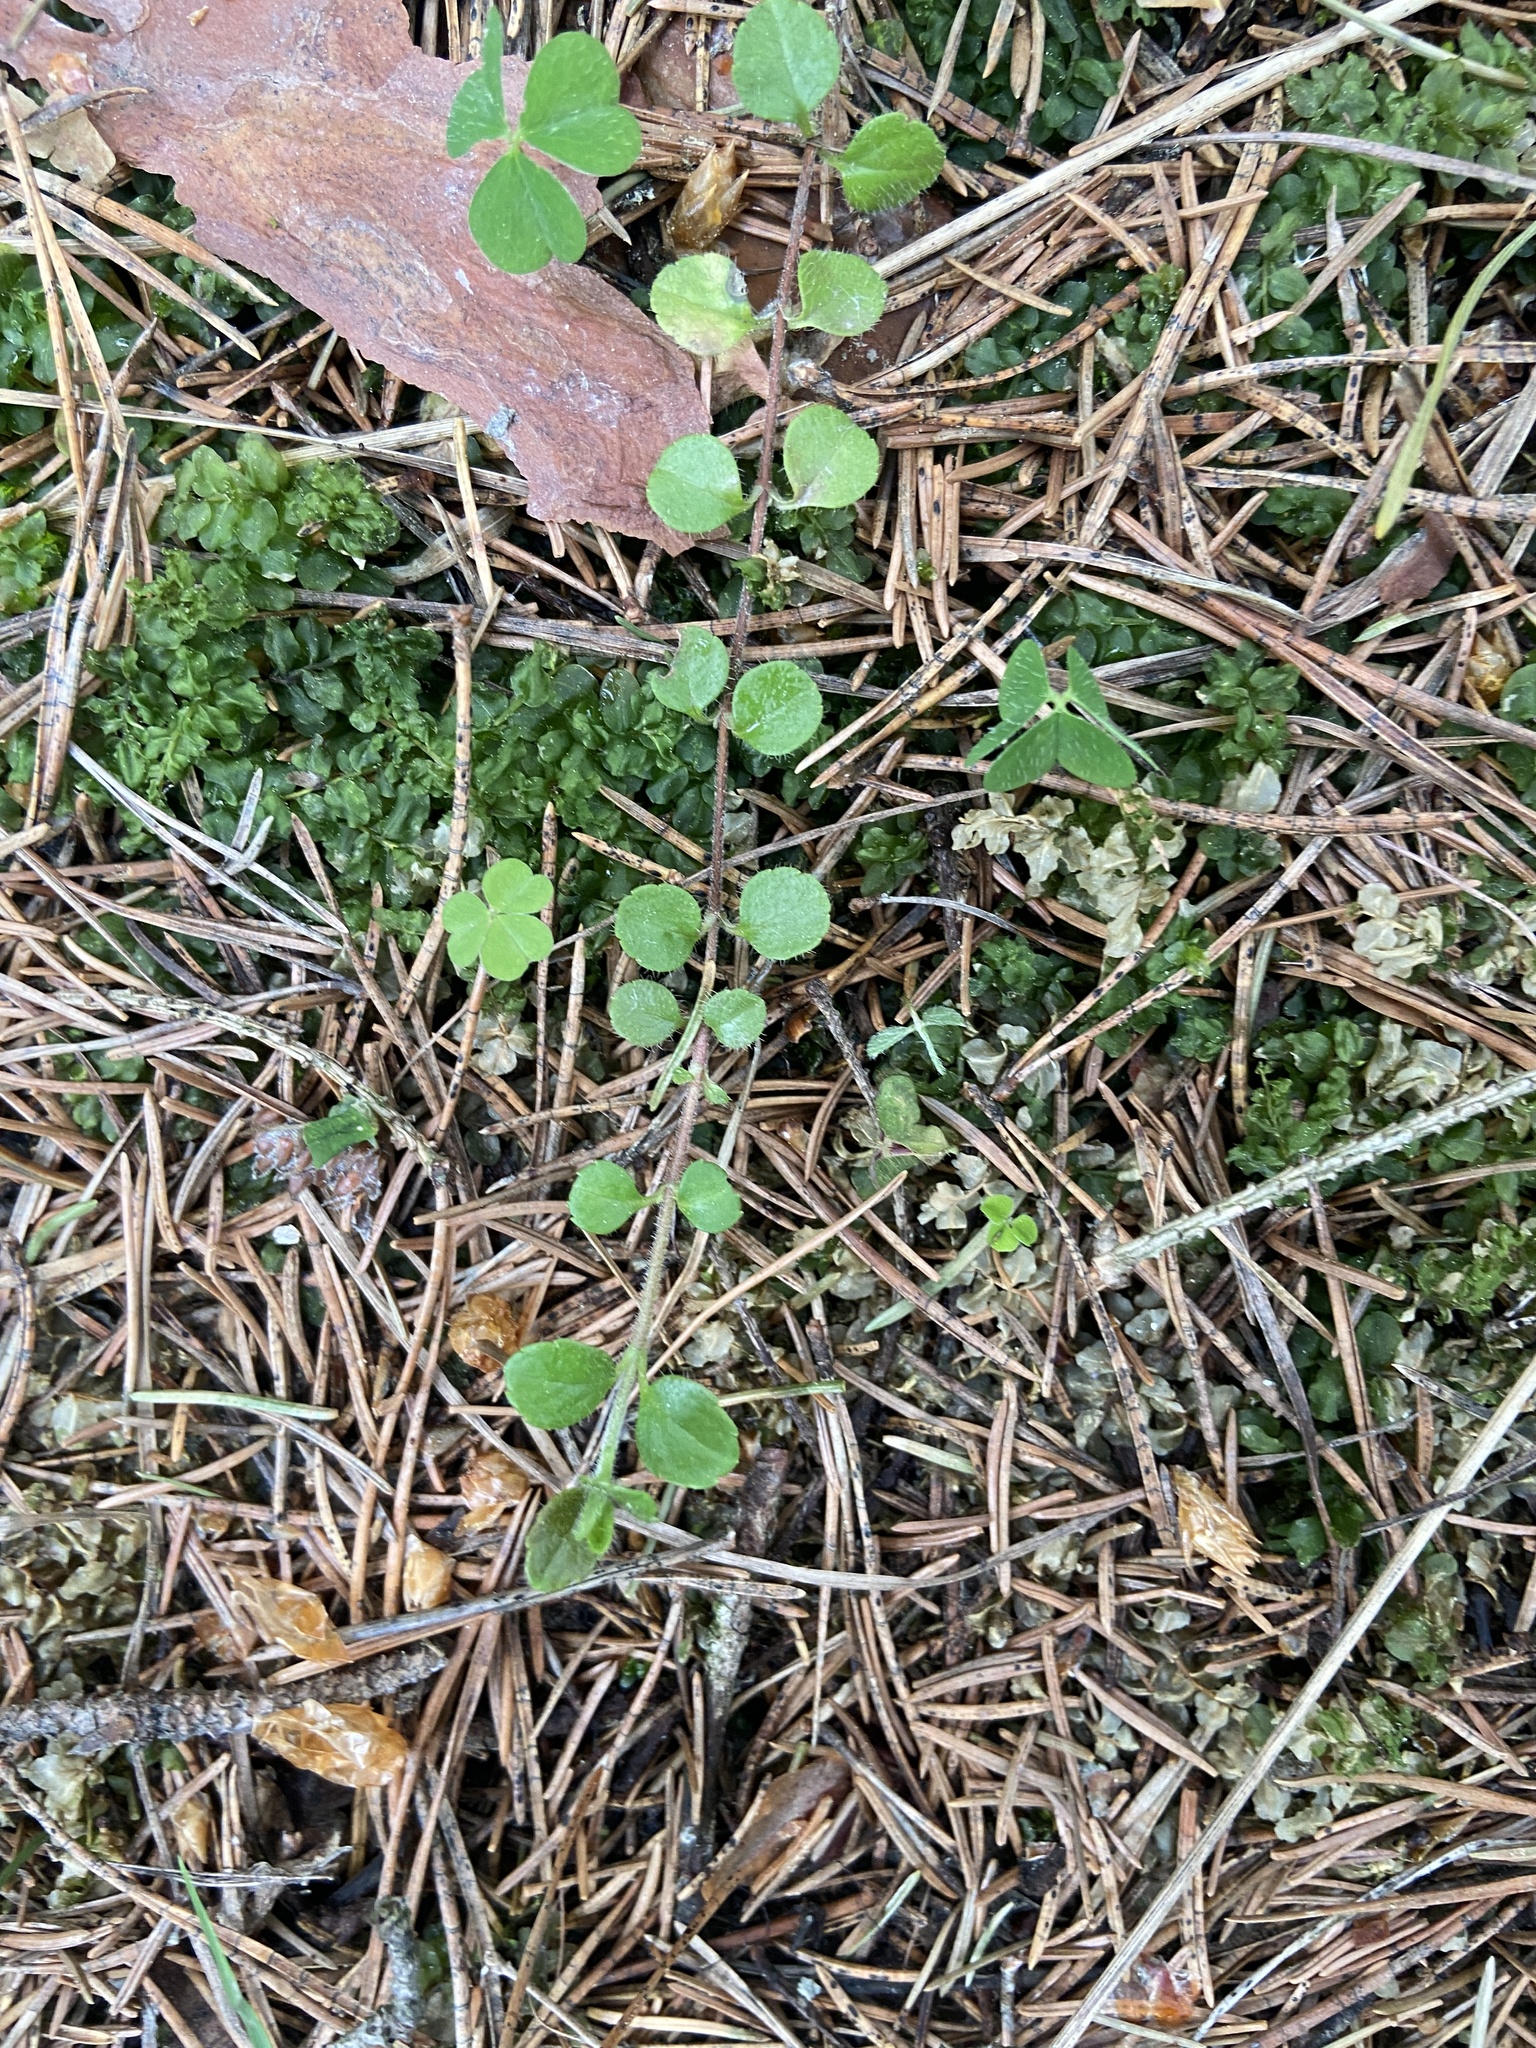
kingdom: Plantae
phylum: Tracheophyta
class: Magnoliopsida
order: Dipsacales
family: Caprifoliaceae
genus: Linnaea
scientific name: Linnaea borealis
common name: Twinflower
